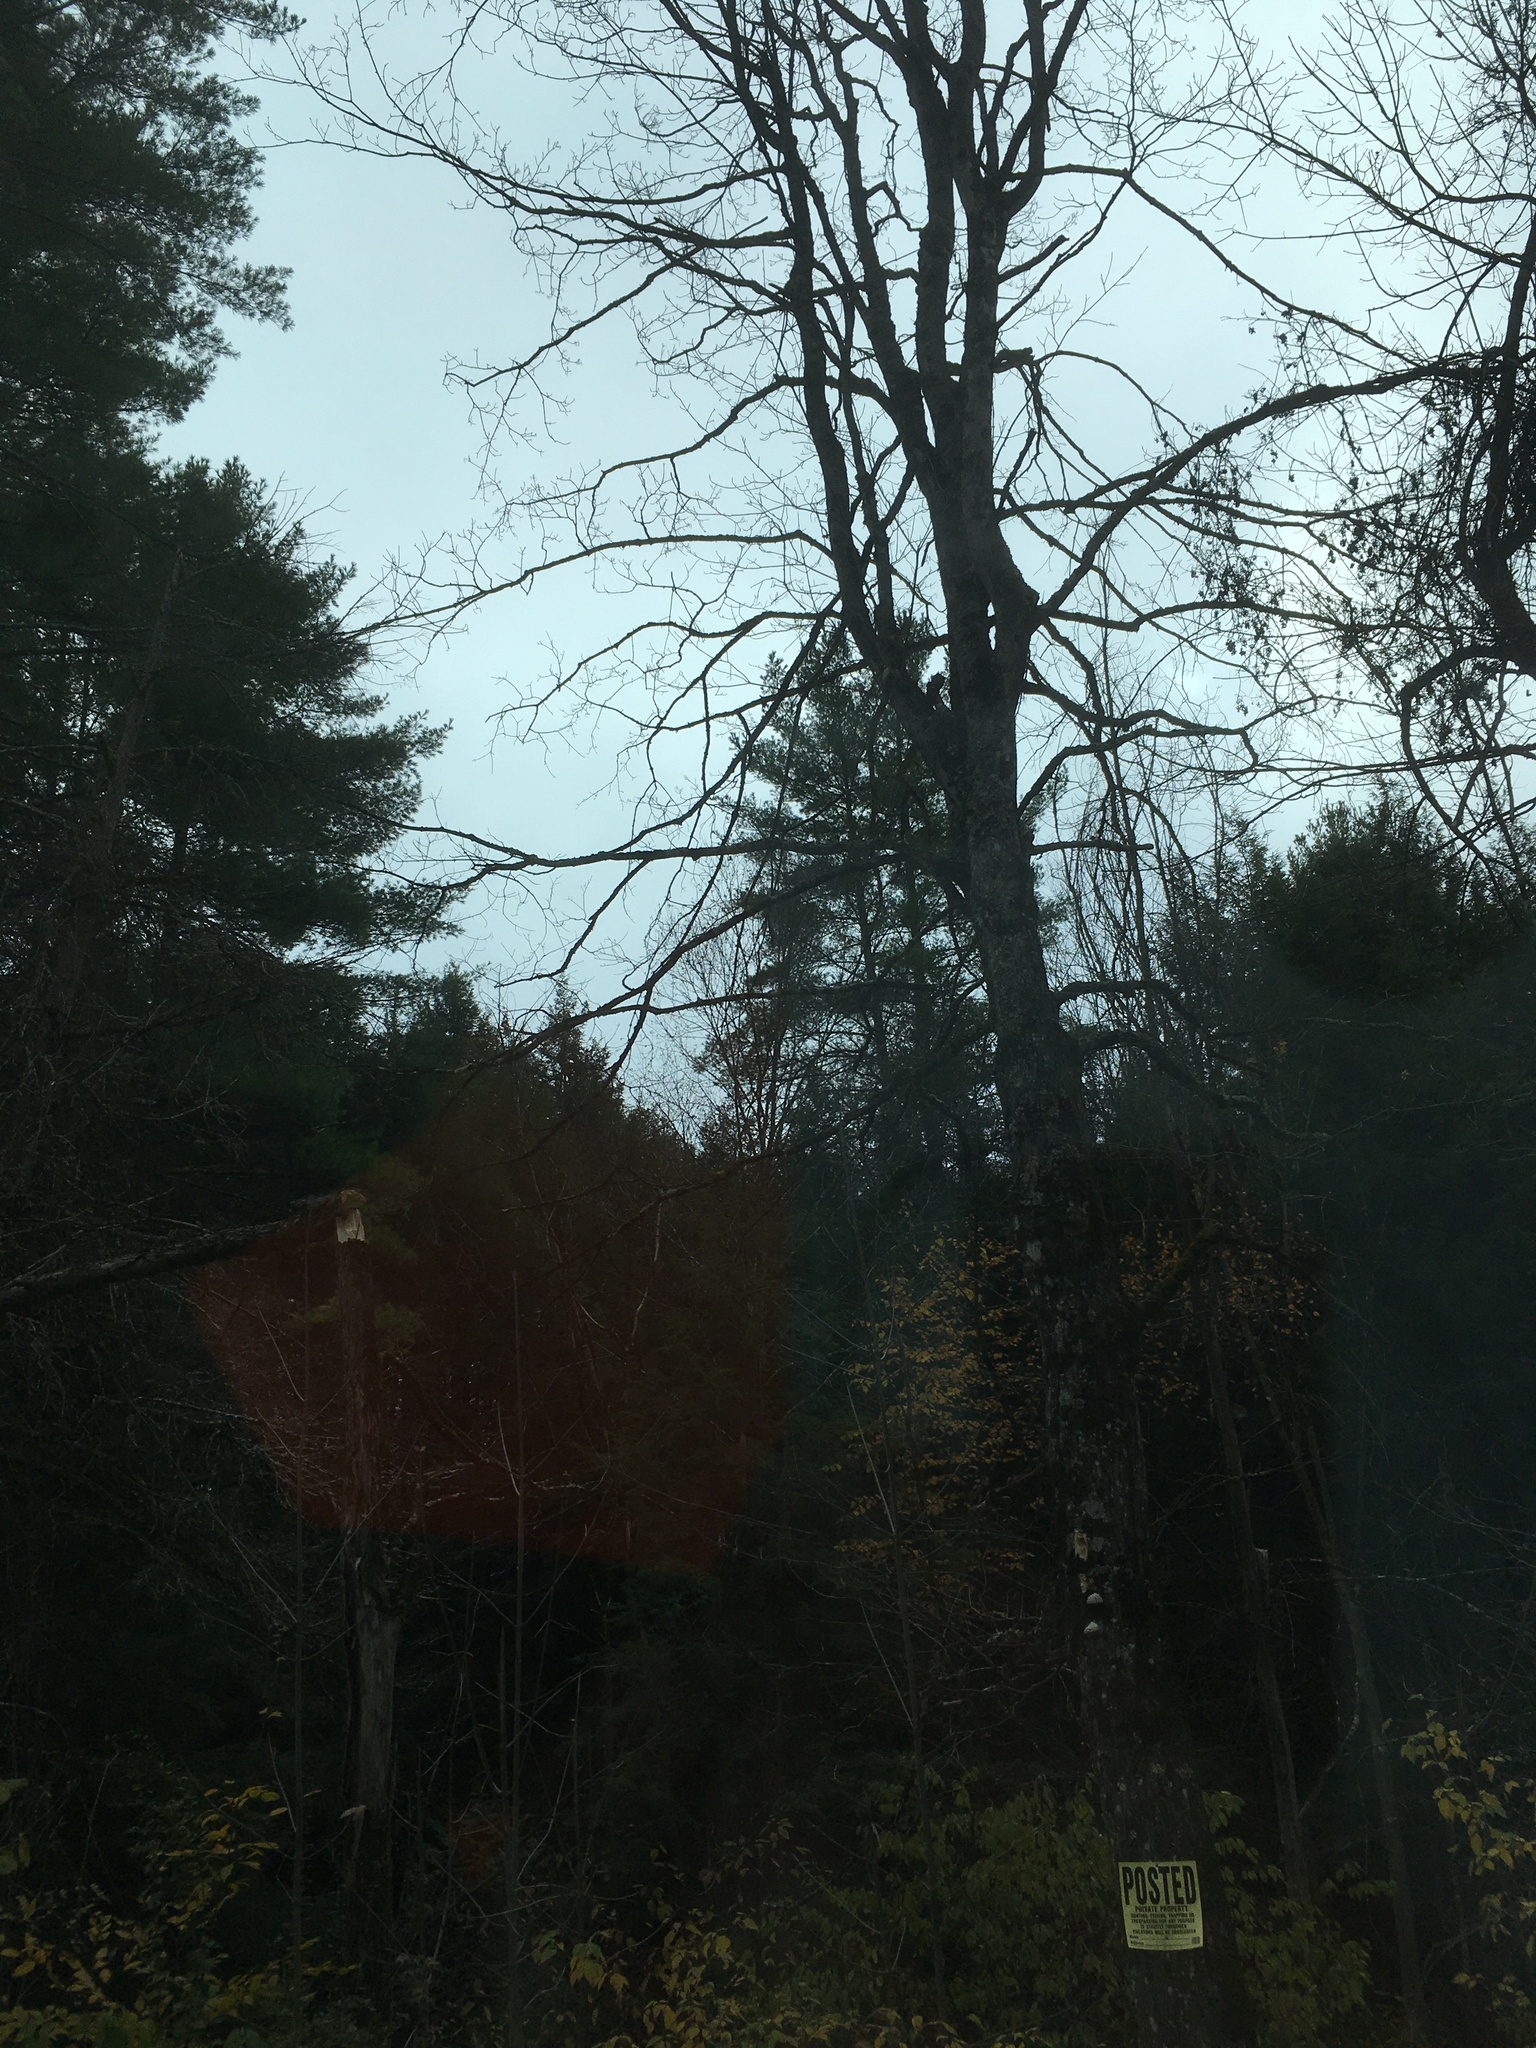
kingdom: Plantae
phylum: Tracheophyta
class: Pinopsida
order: Pinales
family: Pinaceae
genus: Pinus
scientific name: Pinus strobus
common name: Weymouth pine
